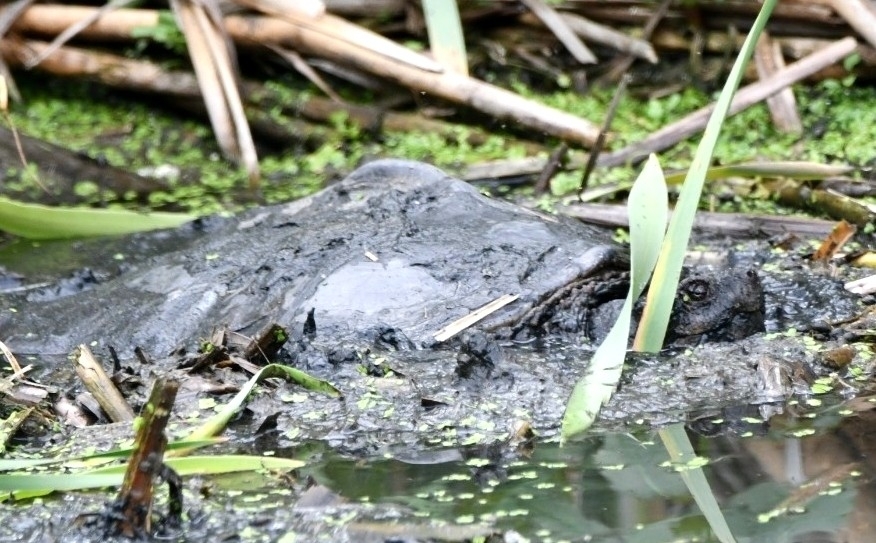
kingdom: Animalia
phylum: Chordata
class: Testudines
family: Chelydridae
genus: Chelydra
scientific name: Chelydra serpentina
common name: Common snapping turtle
